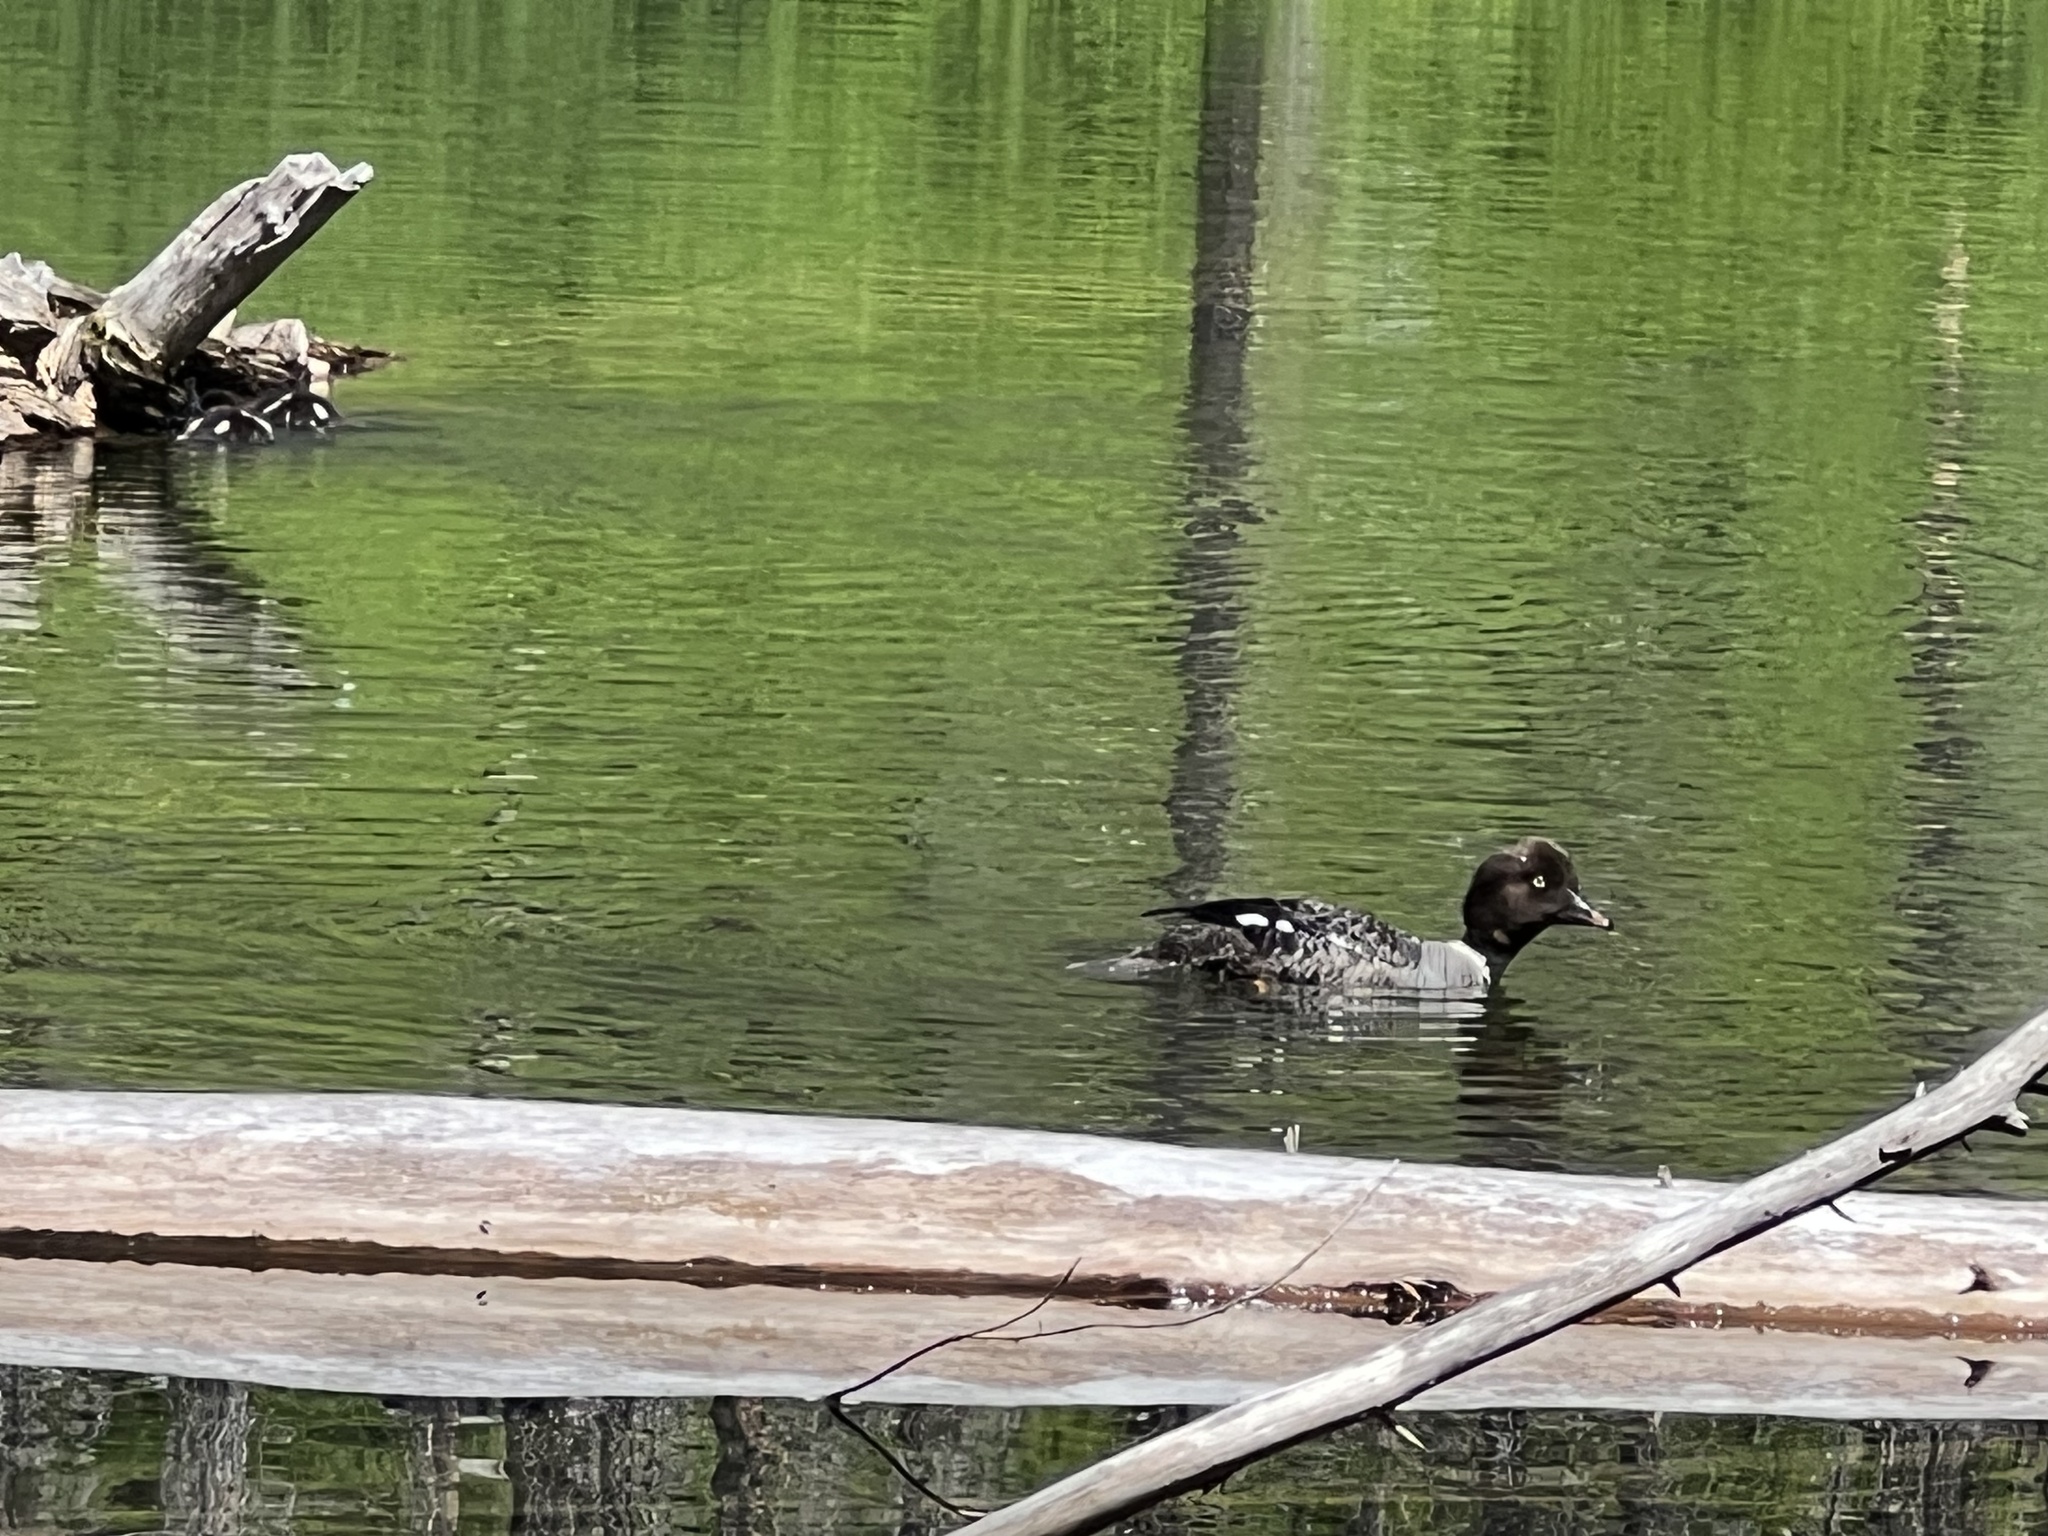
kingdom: Animalia
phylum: Chordata
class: Aves
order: Anseriformes
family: Anatidae
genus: Bucephala
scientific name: Bucephala islandica
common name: Barrow's goldeneye
